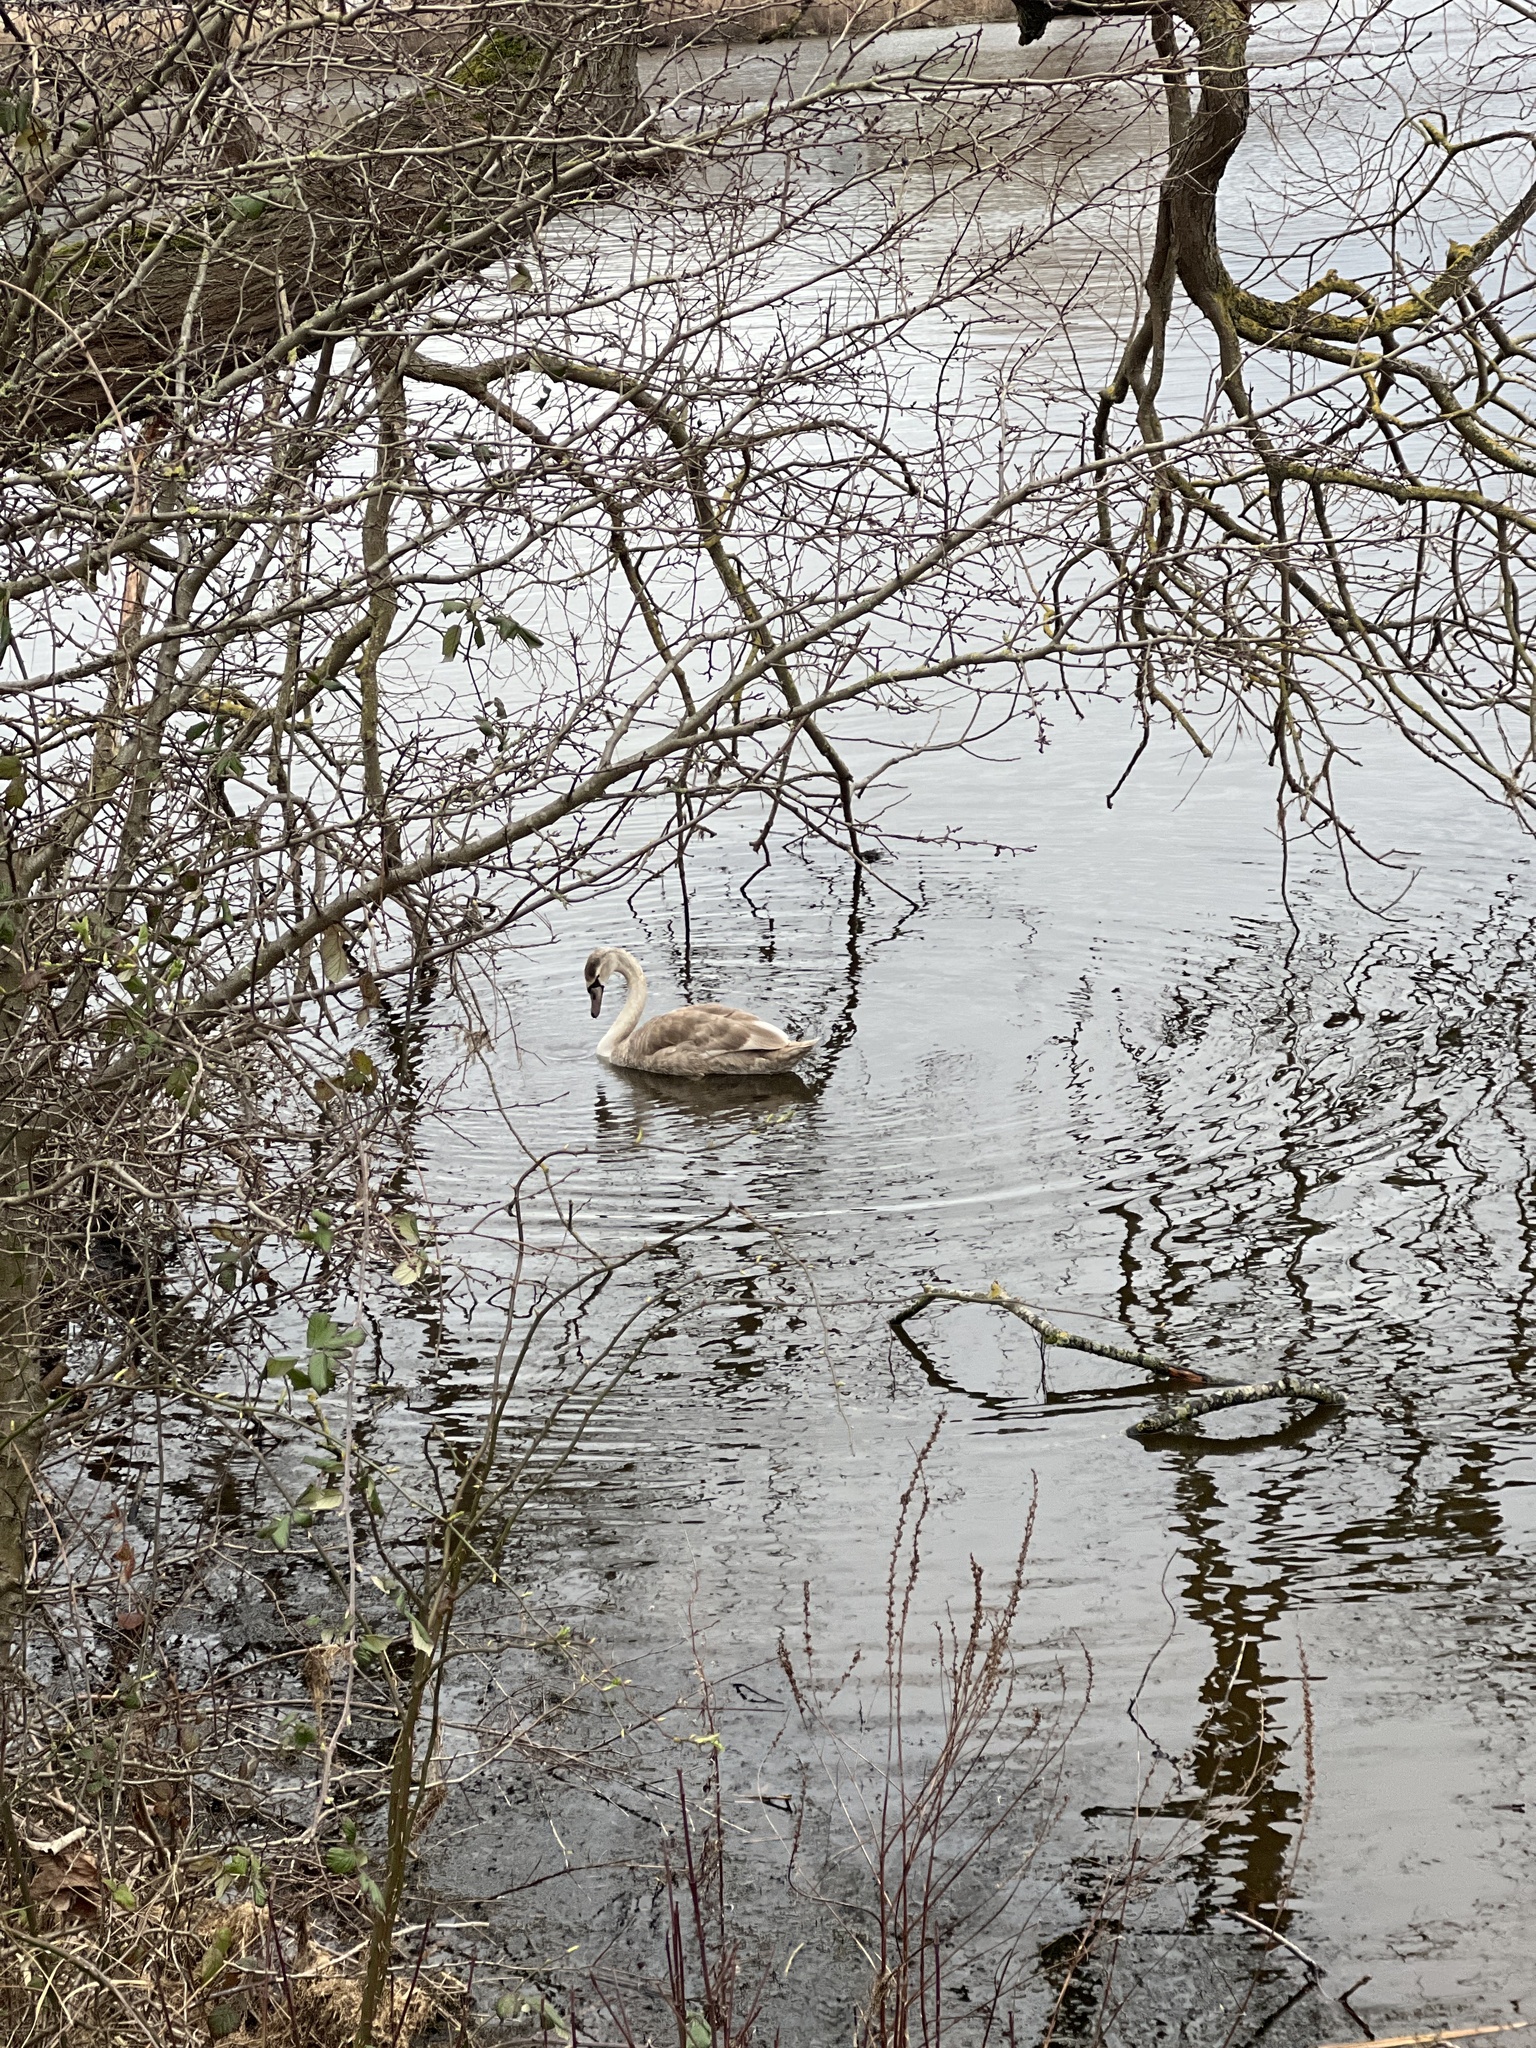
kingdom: Animalia
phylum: Chordata
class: Aves
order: Anseriformes
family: Anatidae
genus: Cygnus
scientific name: Cygnus olor
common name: Mute swan
